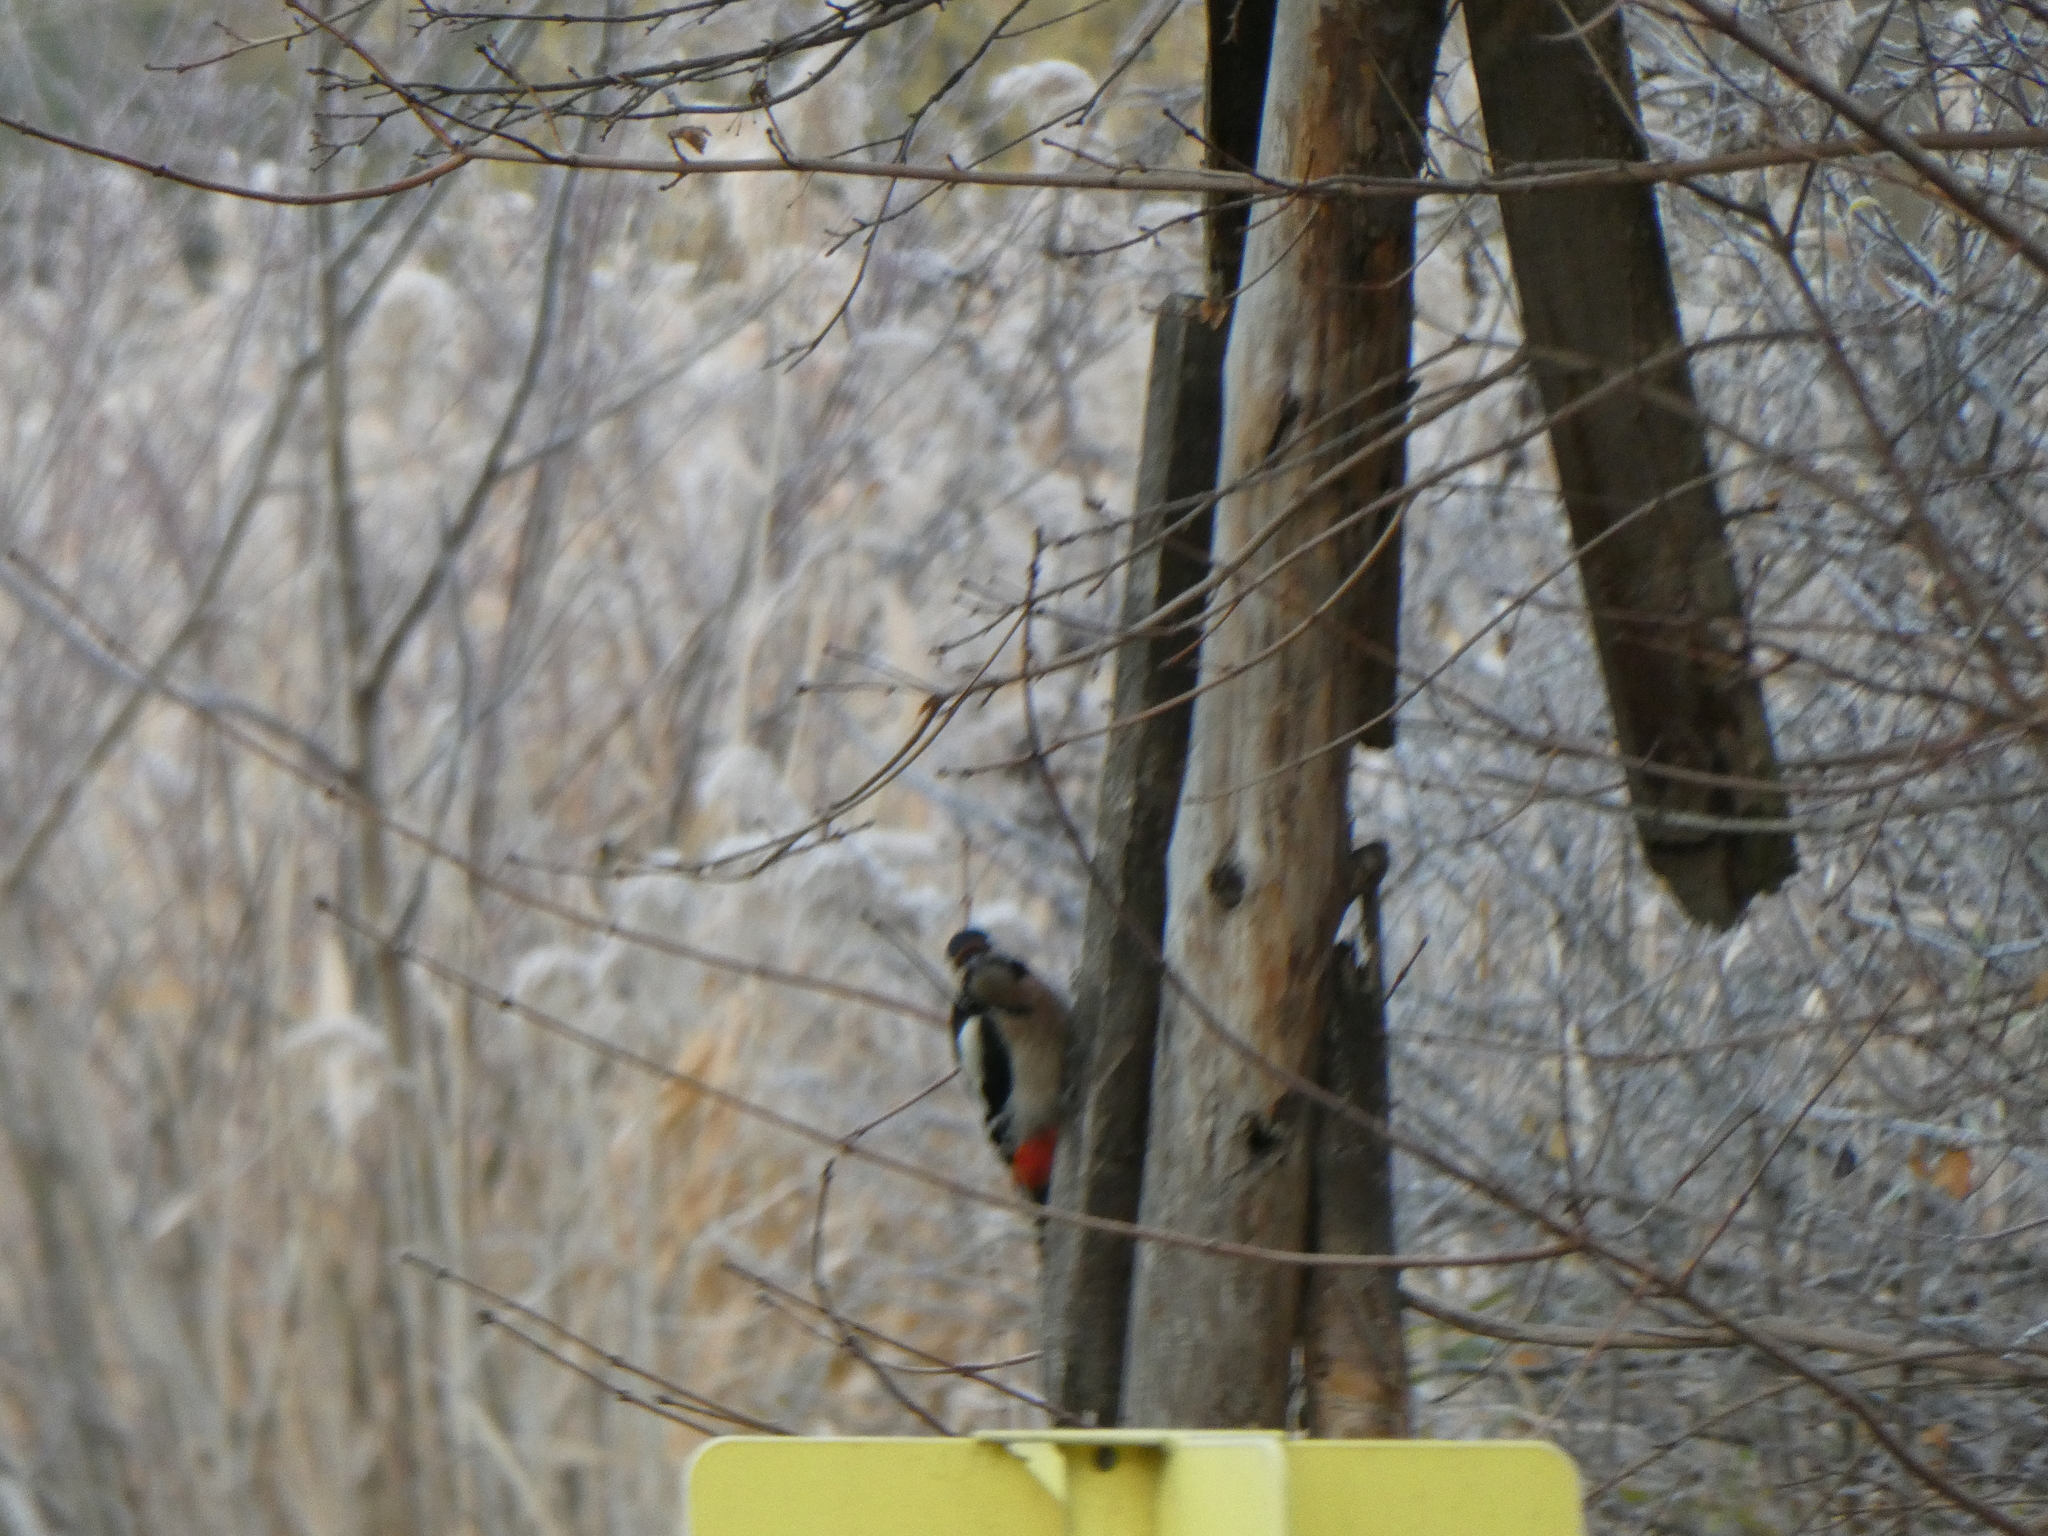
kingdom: Animalia
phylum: Chordata
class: Aves
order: Piciformes
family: Picidae
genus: Dendrocopos
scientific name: Dendrocopos major
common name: Great spotted woodpecker
